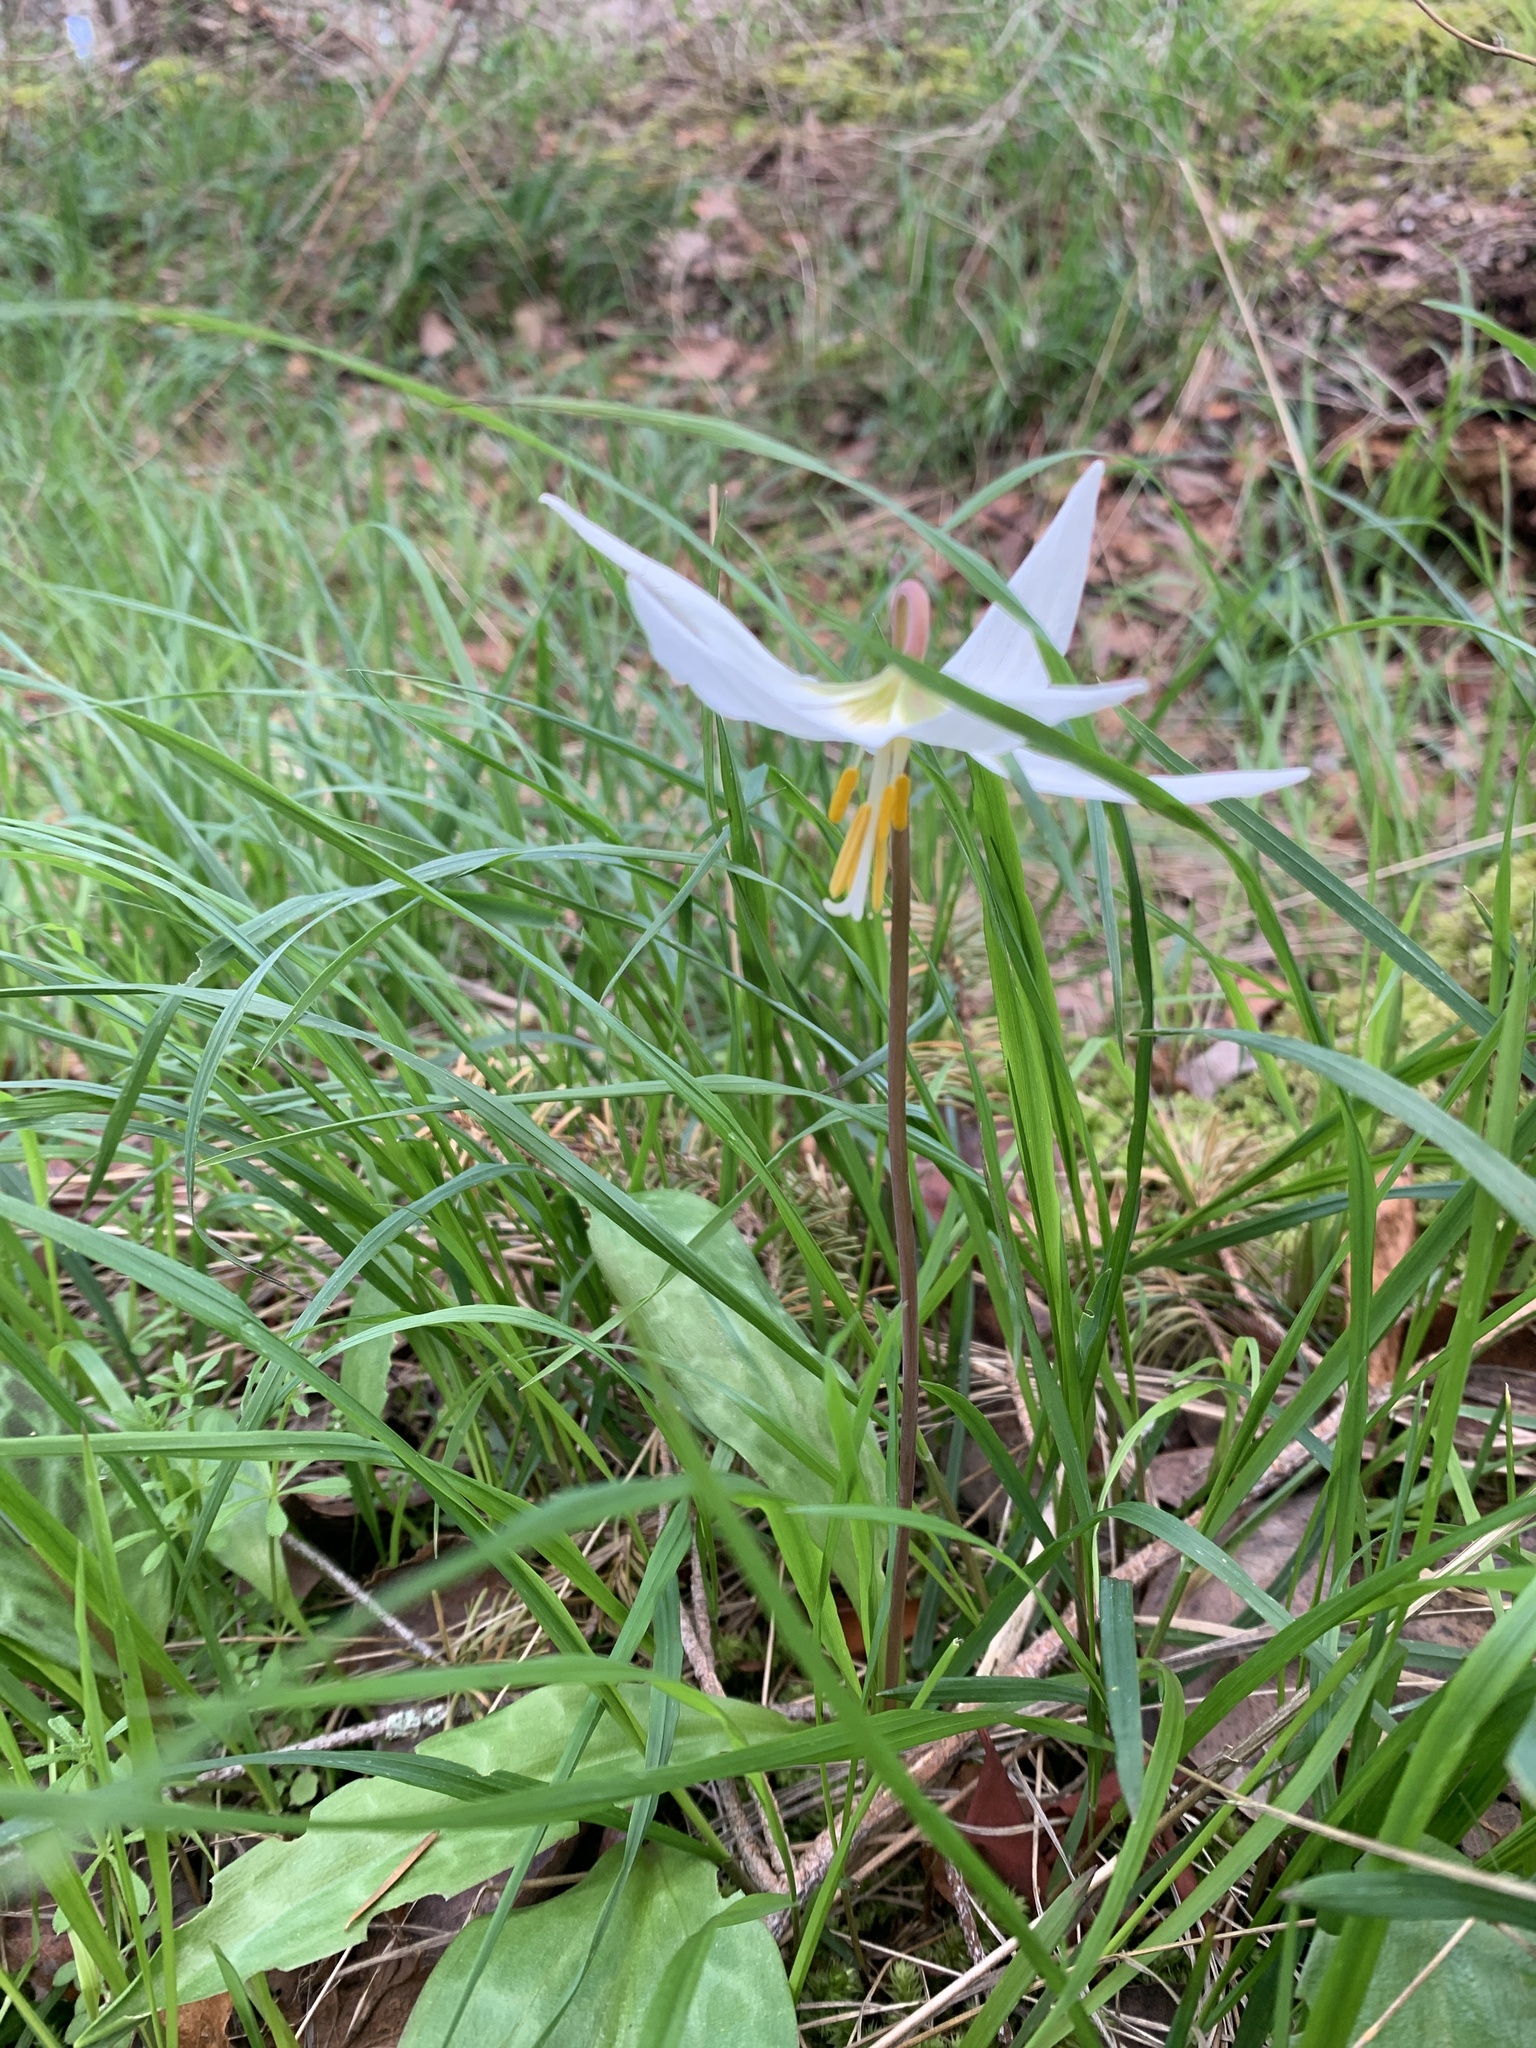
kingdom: Plantae
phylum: Tracheophyta
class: Liliopsida
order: Liliales
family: Liliaceae
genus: Erythronium
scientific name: Erythronium oregonum
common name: Giant adder's-tongue
